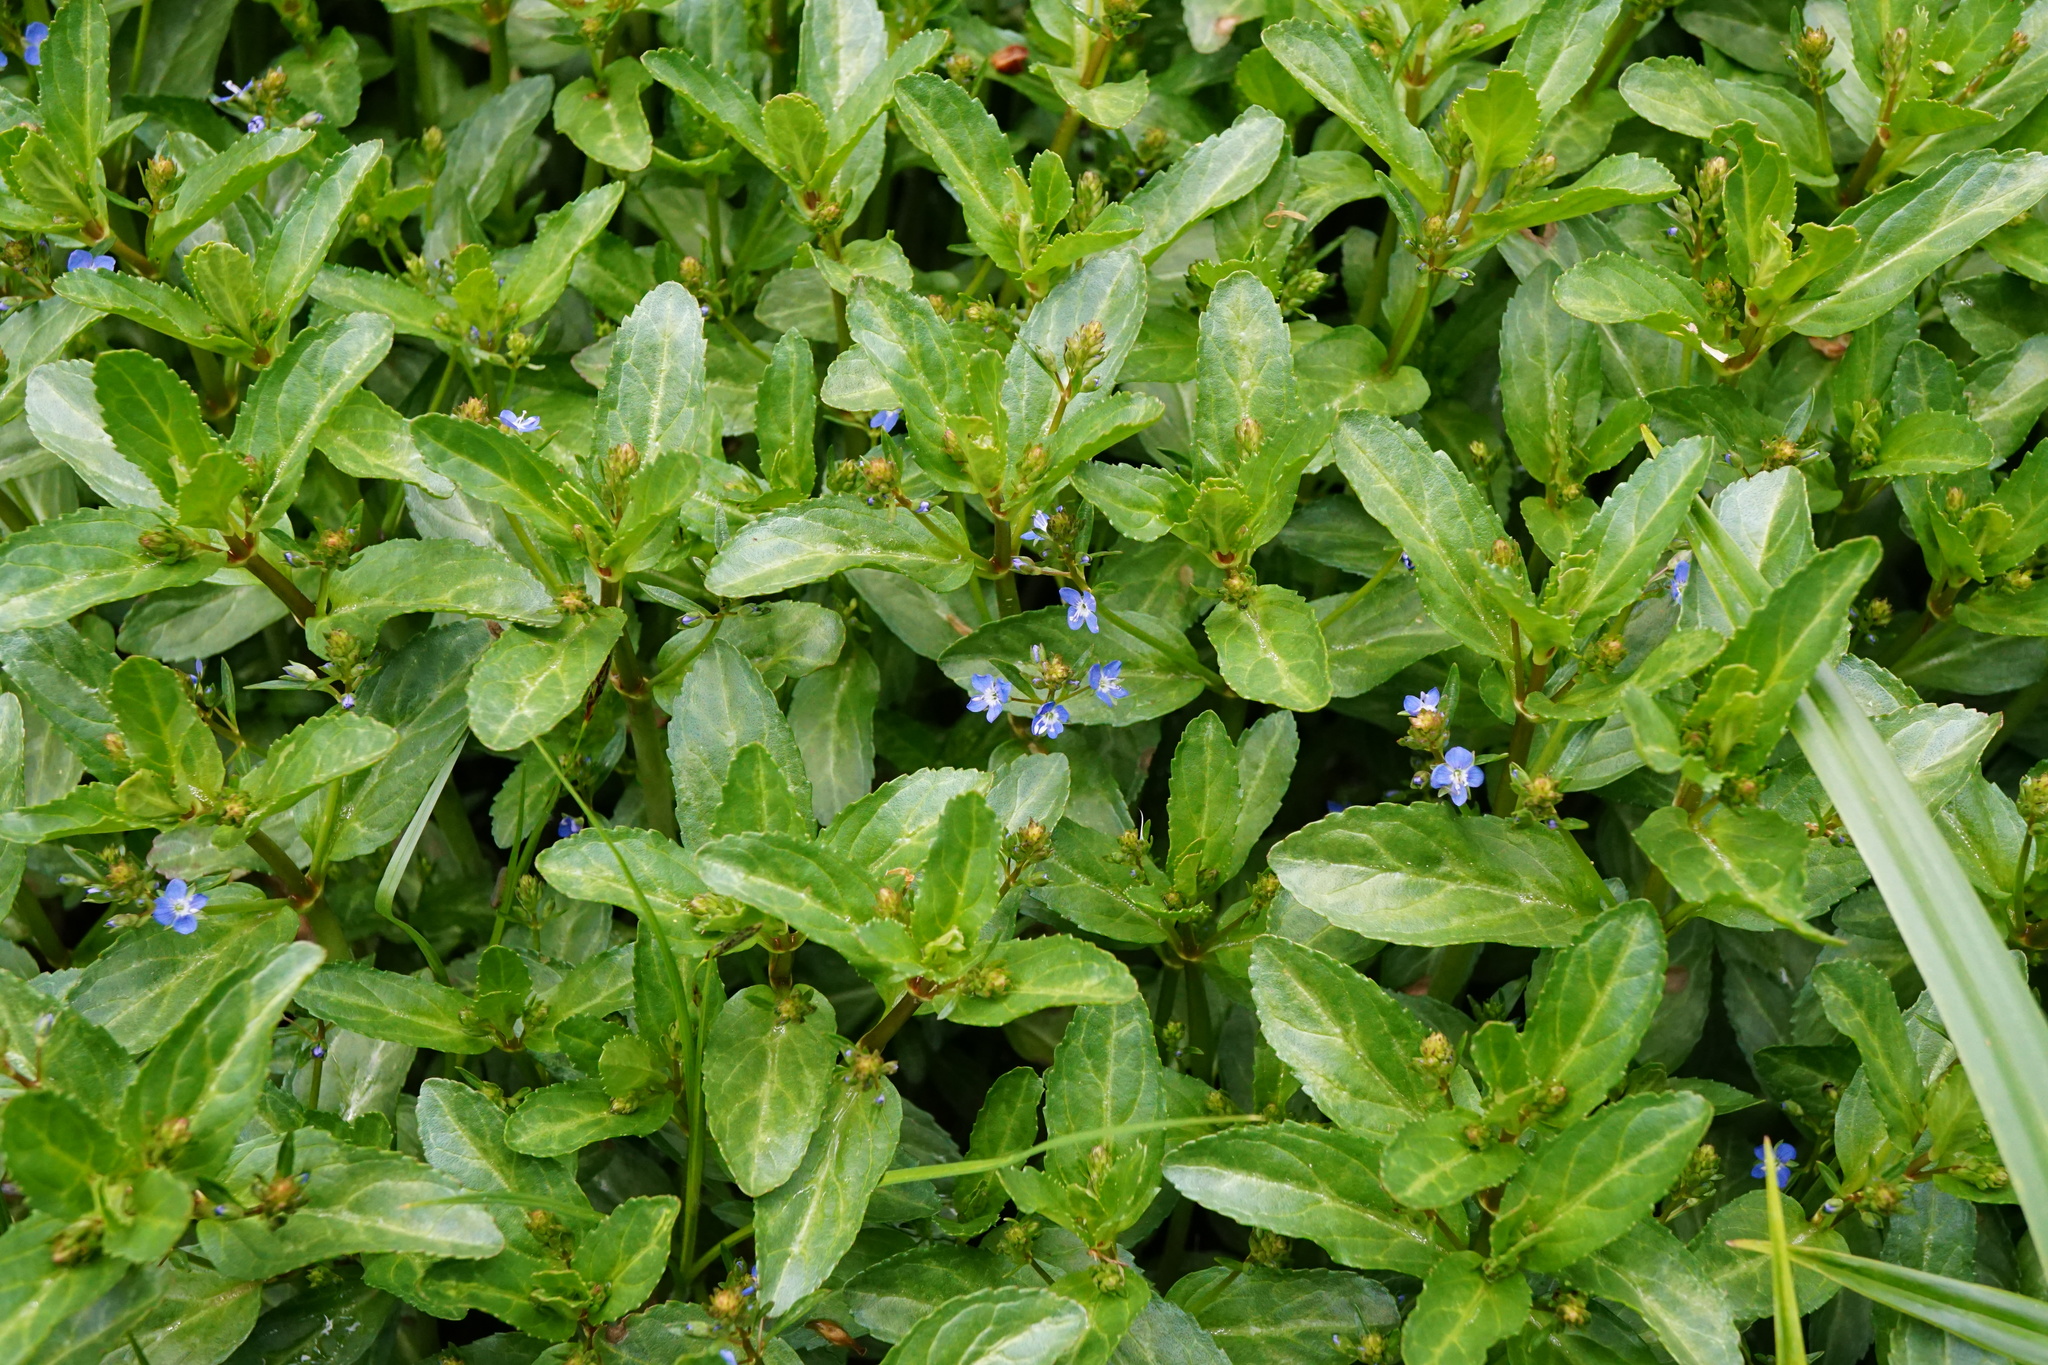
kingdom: Plantae
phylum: Tracheophyta
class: Magnoliopsida
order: Lamiales
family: Plantaginaceae
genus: Veronica
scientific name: Veronica beccabunga
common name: Brooklime
